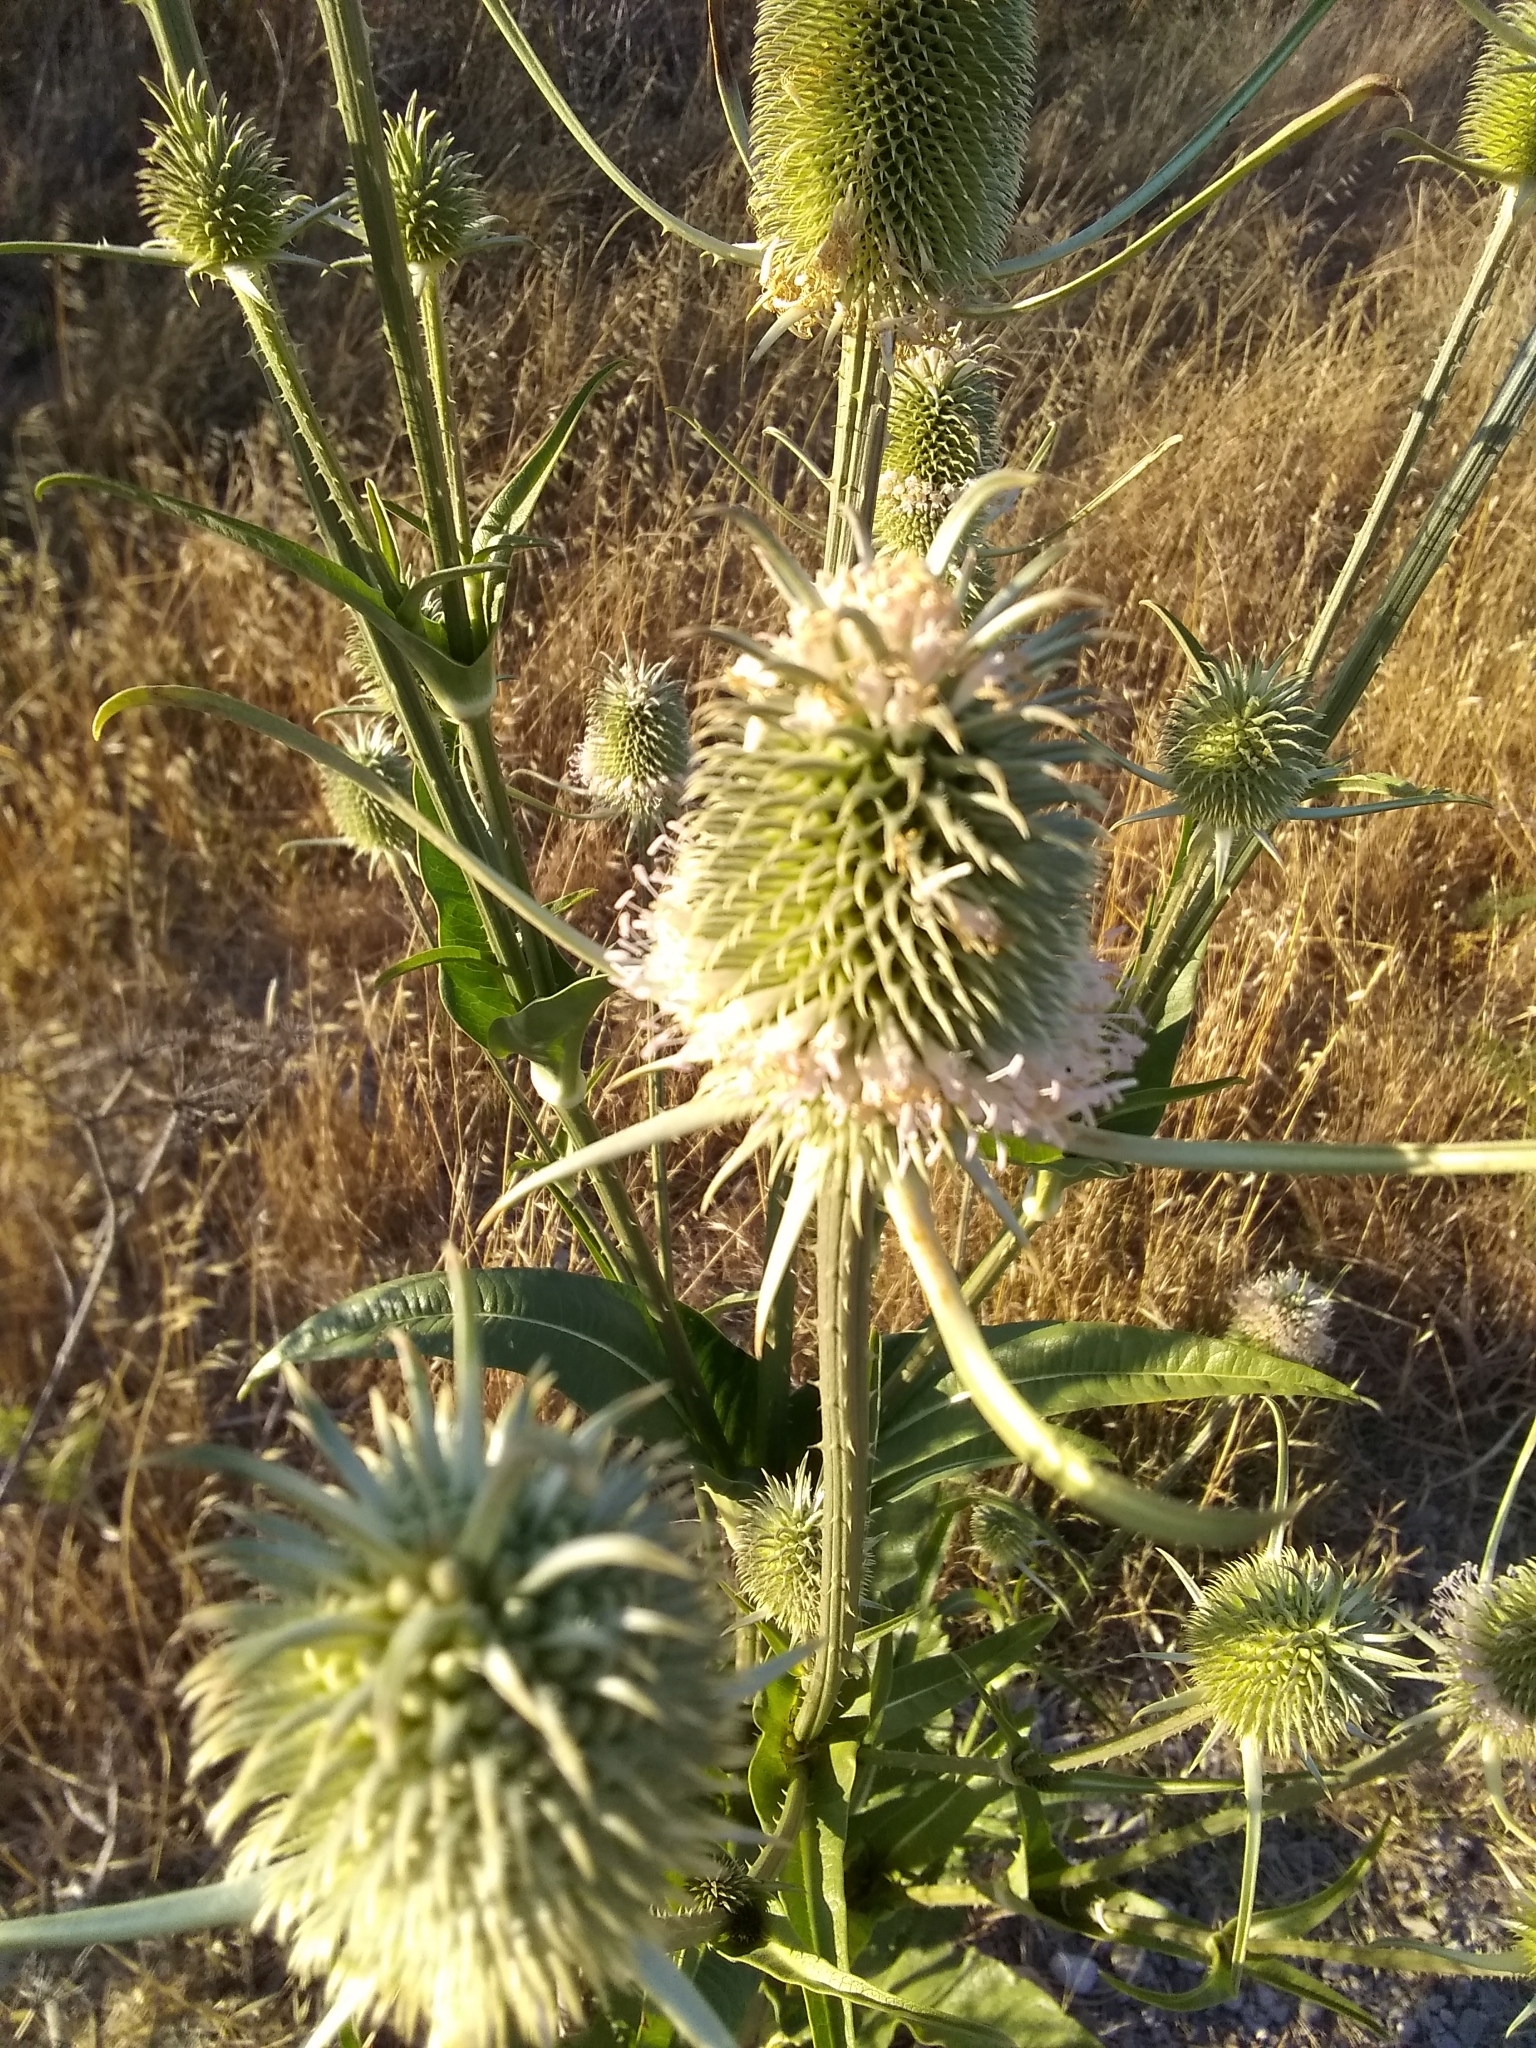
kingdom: Plantae
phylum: Tracheophyta
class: Magnoliopsida
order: Dipsacales
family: Caprifoliaceae
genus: Dipsacus
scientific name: Dipsacus sativus
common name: Fuller's teasel
